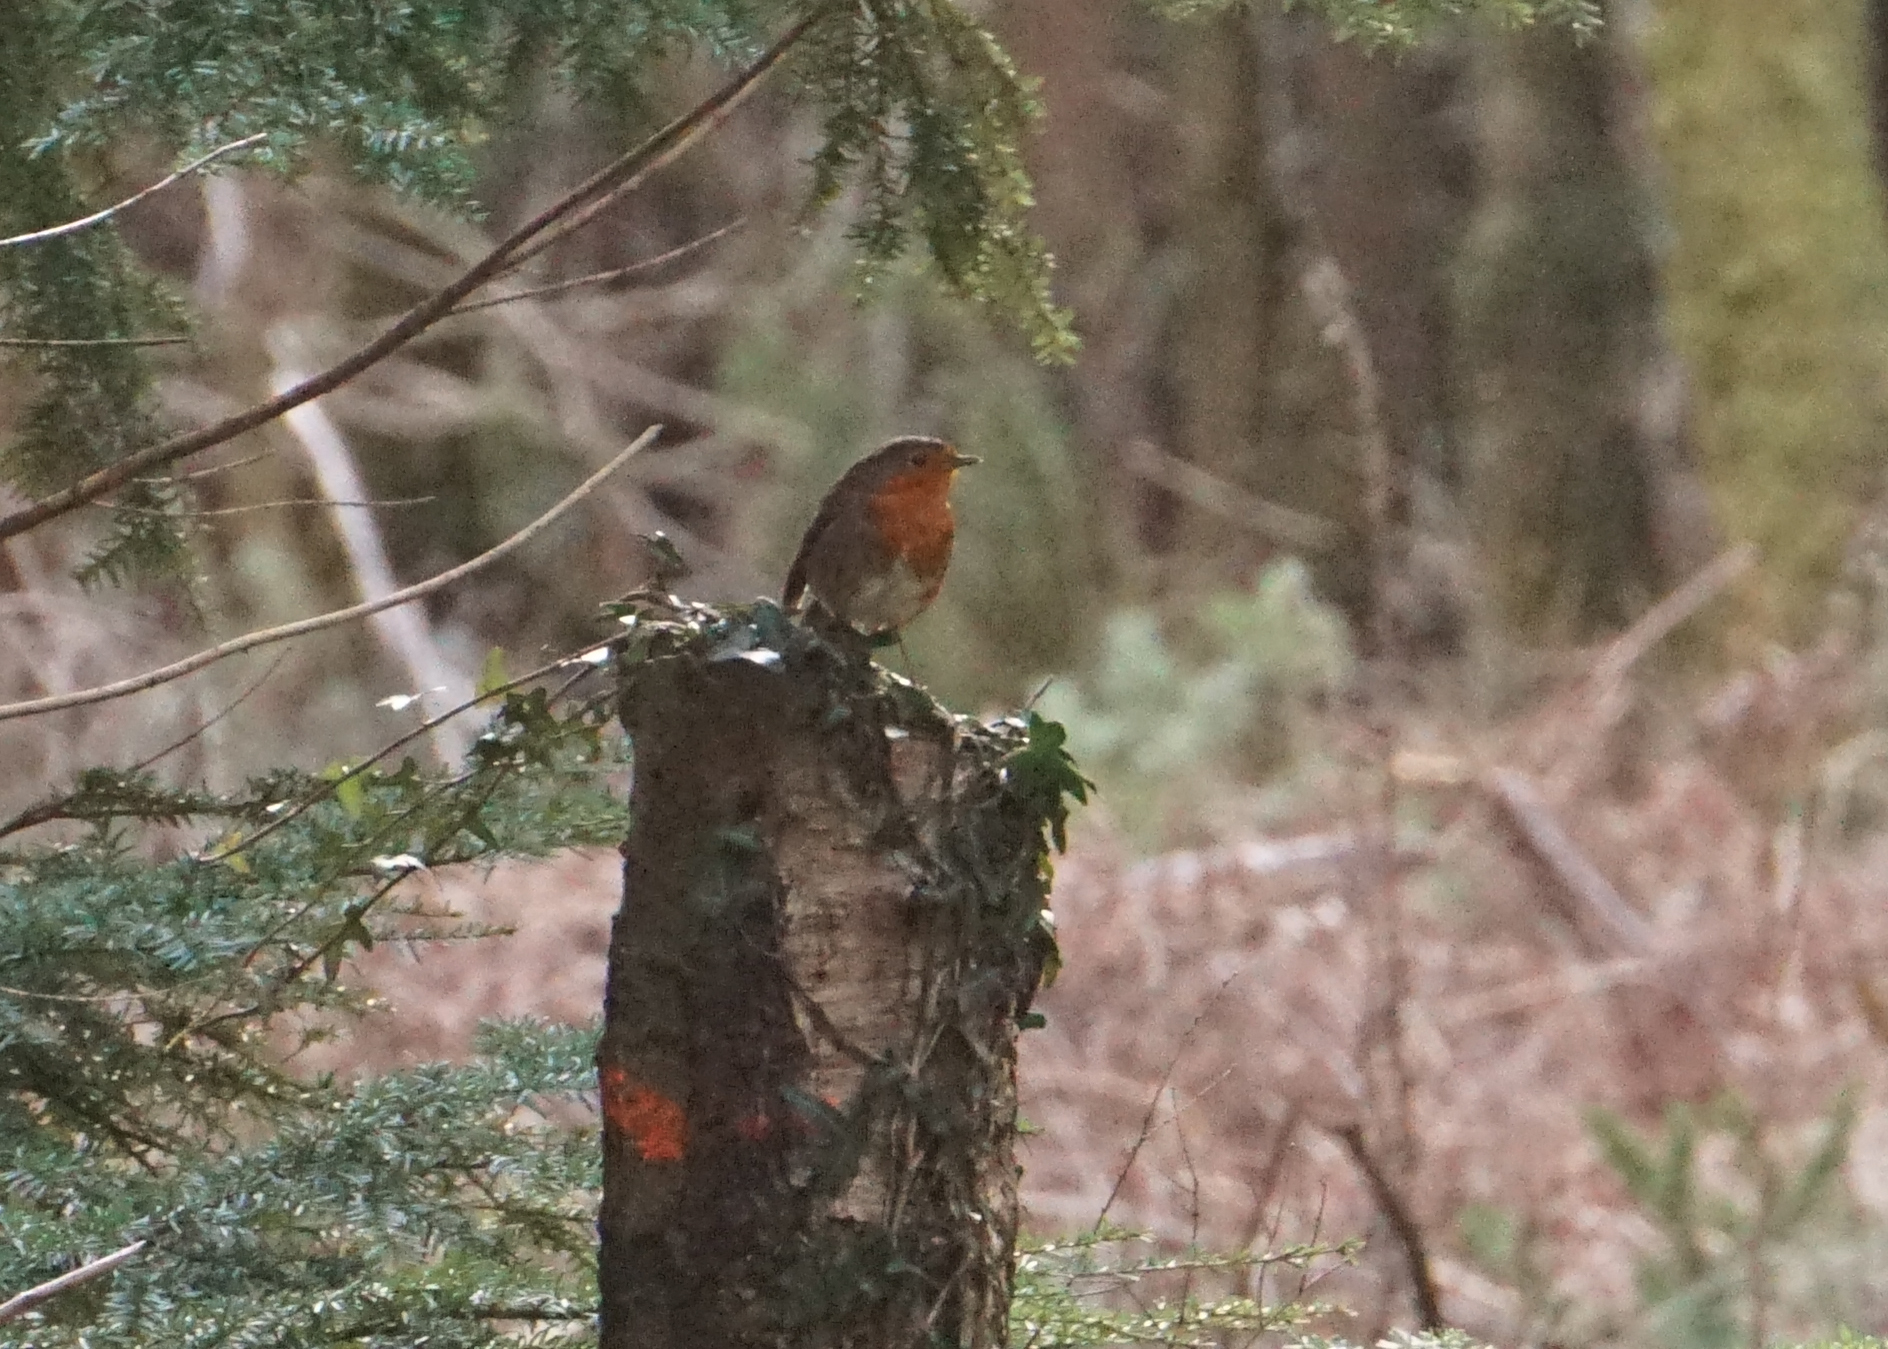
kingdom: Animalia
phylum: Chordata
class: Aves
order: Passeriformes
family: Muscicapidae
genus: Erithacus
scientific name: Erithacus rubecula
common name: European robin
